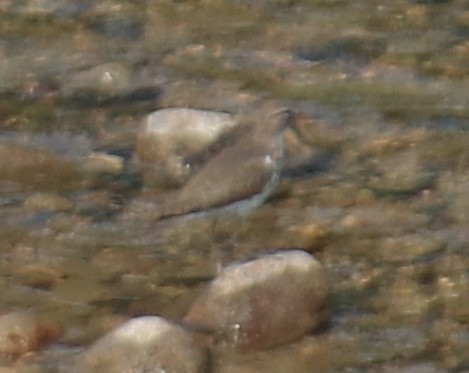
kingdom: Animalia
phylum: Chordata
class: Aves
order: Charadriiformes
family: Scolopacidae
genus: Actitis
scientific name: Actitis macularius
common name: Spotted sandpiper
